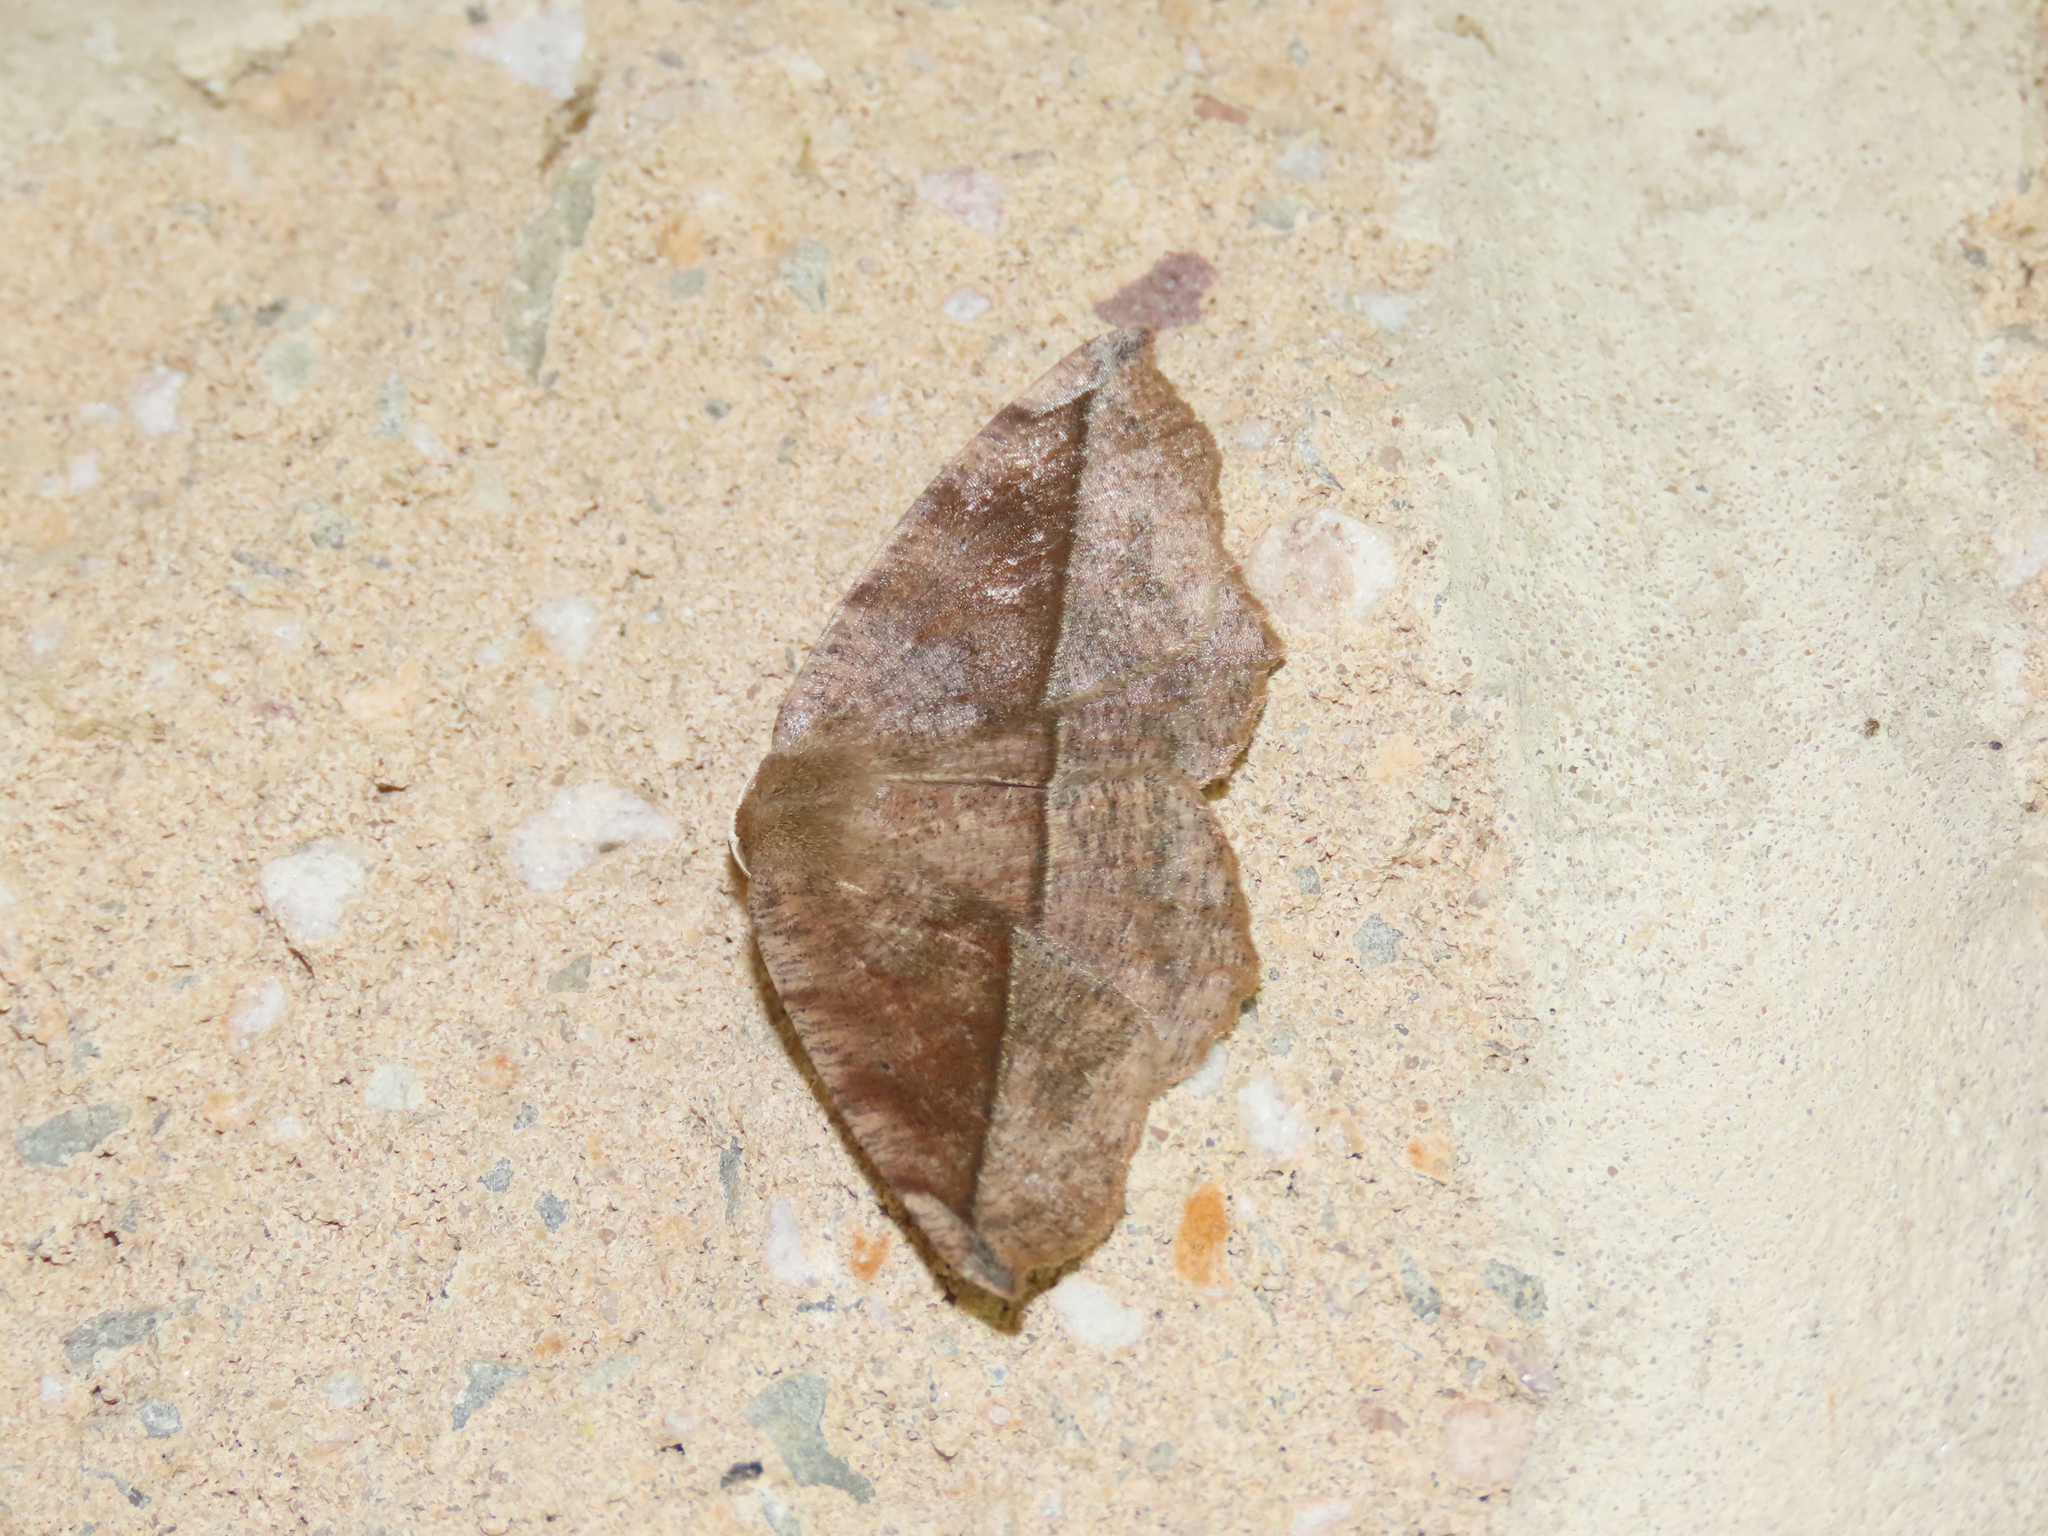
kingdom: Animalia
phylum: Arthropoda
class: Insecta
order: Lepidoptera
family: Geometridae
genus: Eutrapela
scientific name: Eutrapela clemataria
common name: Curved-toothed geometer
